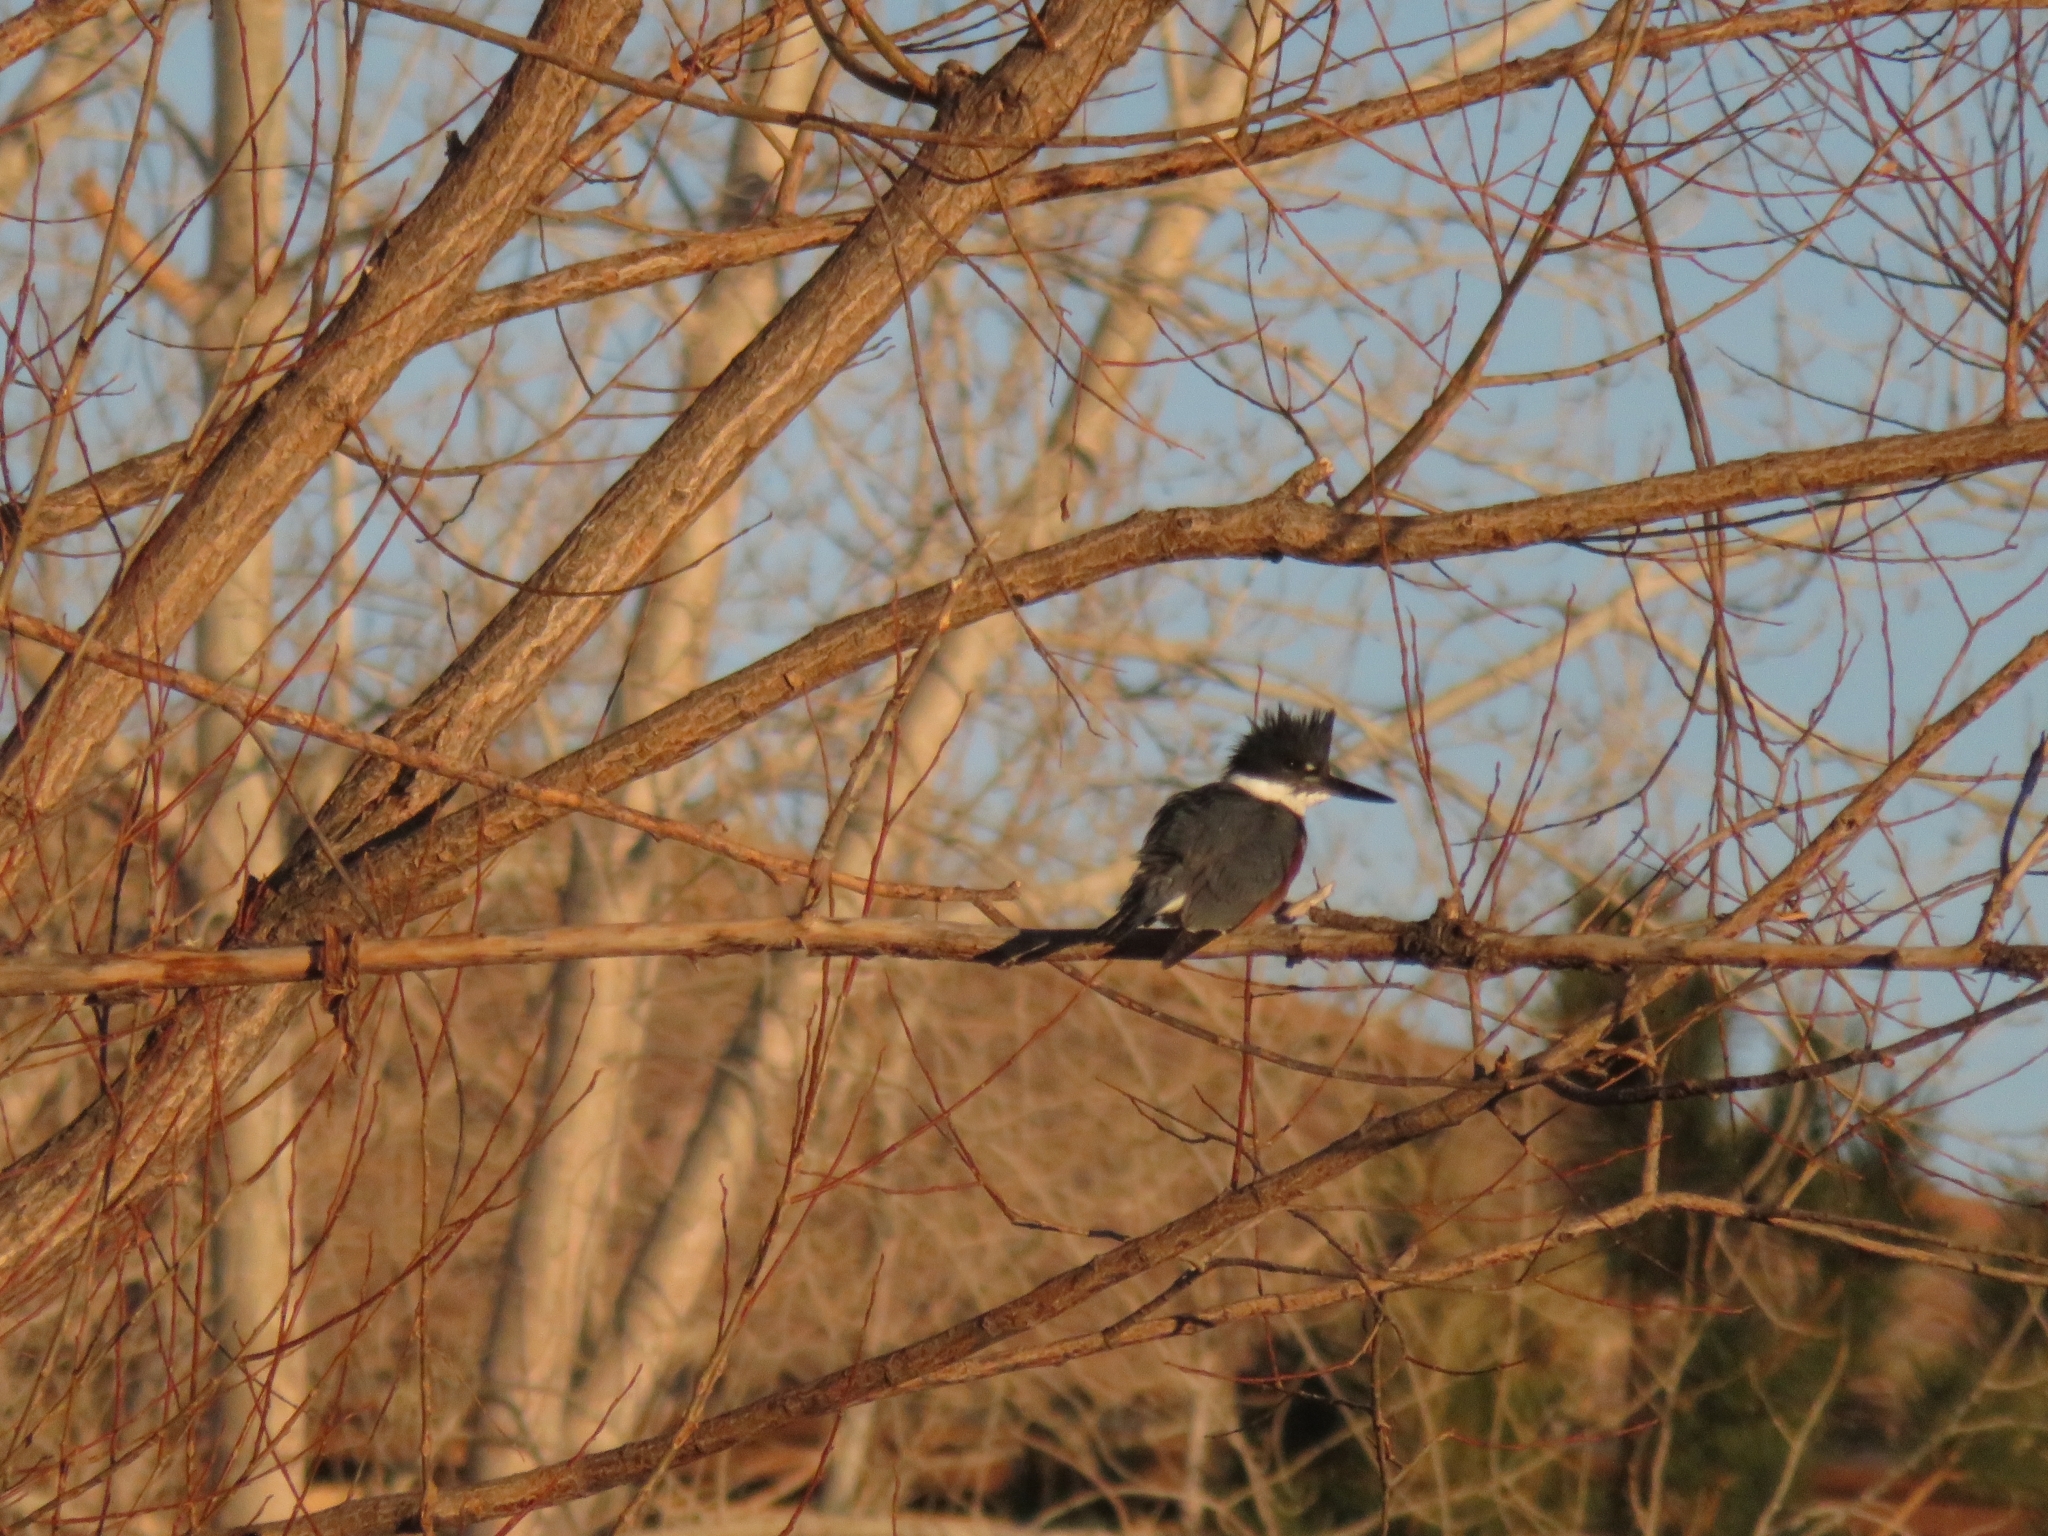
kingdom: Animalia
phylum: Chordata
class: Aves
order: Coraciiformes
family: Alcedinidae
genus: Megaceryle
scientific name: Megaceryle alcyon
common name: Belted kingfisher
